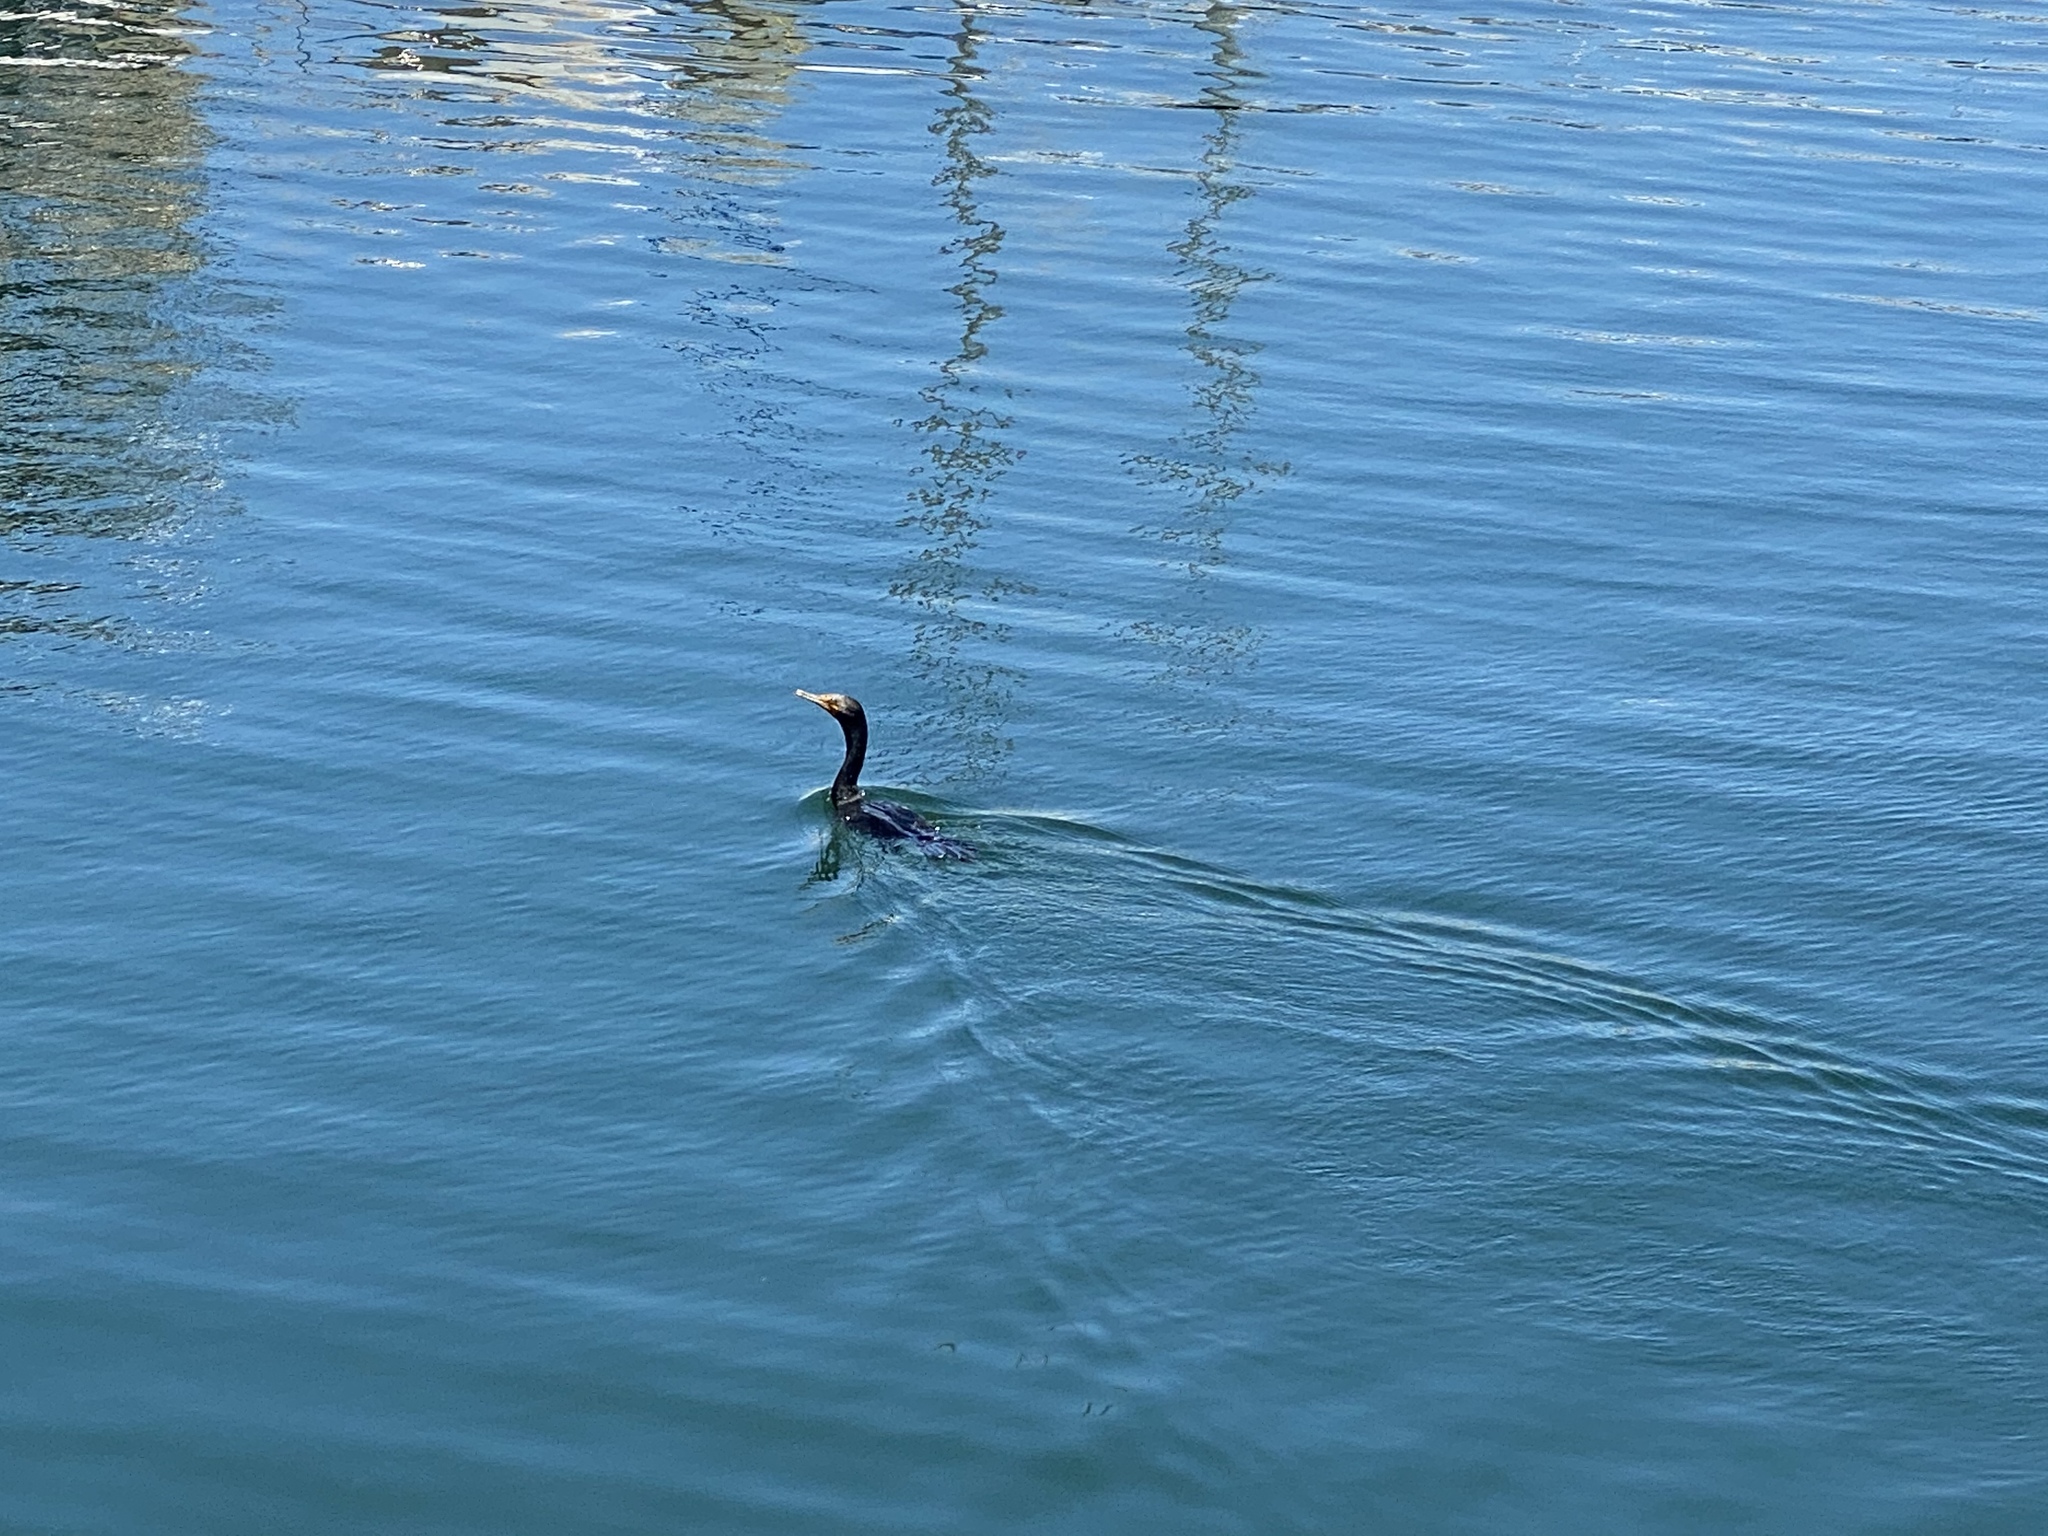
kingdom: Animalia
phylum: Chordata
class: Aves
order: Suliformes
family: Phalacrocoracidae
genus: Phalacrocorax
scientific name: Phalacrocorax auritus
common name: Double-crested cormorant
